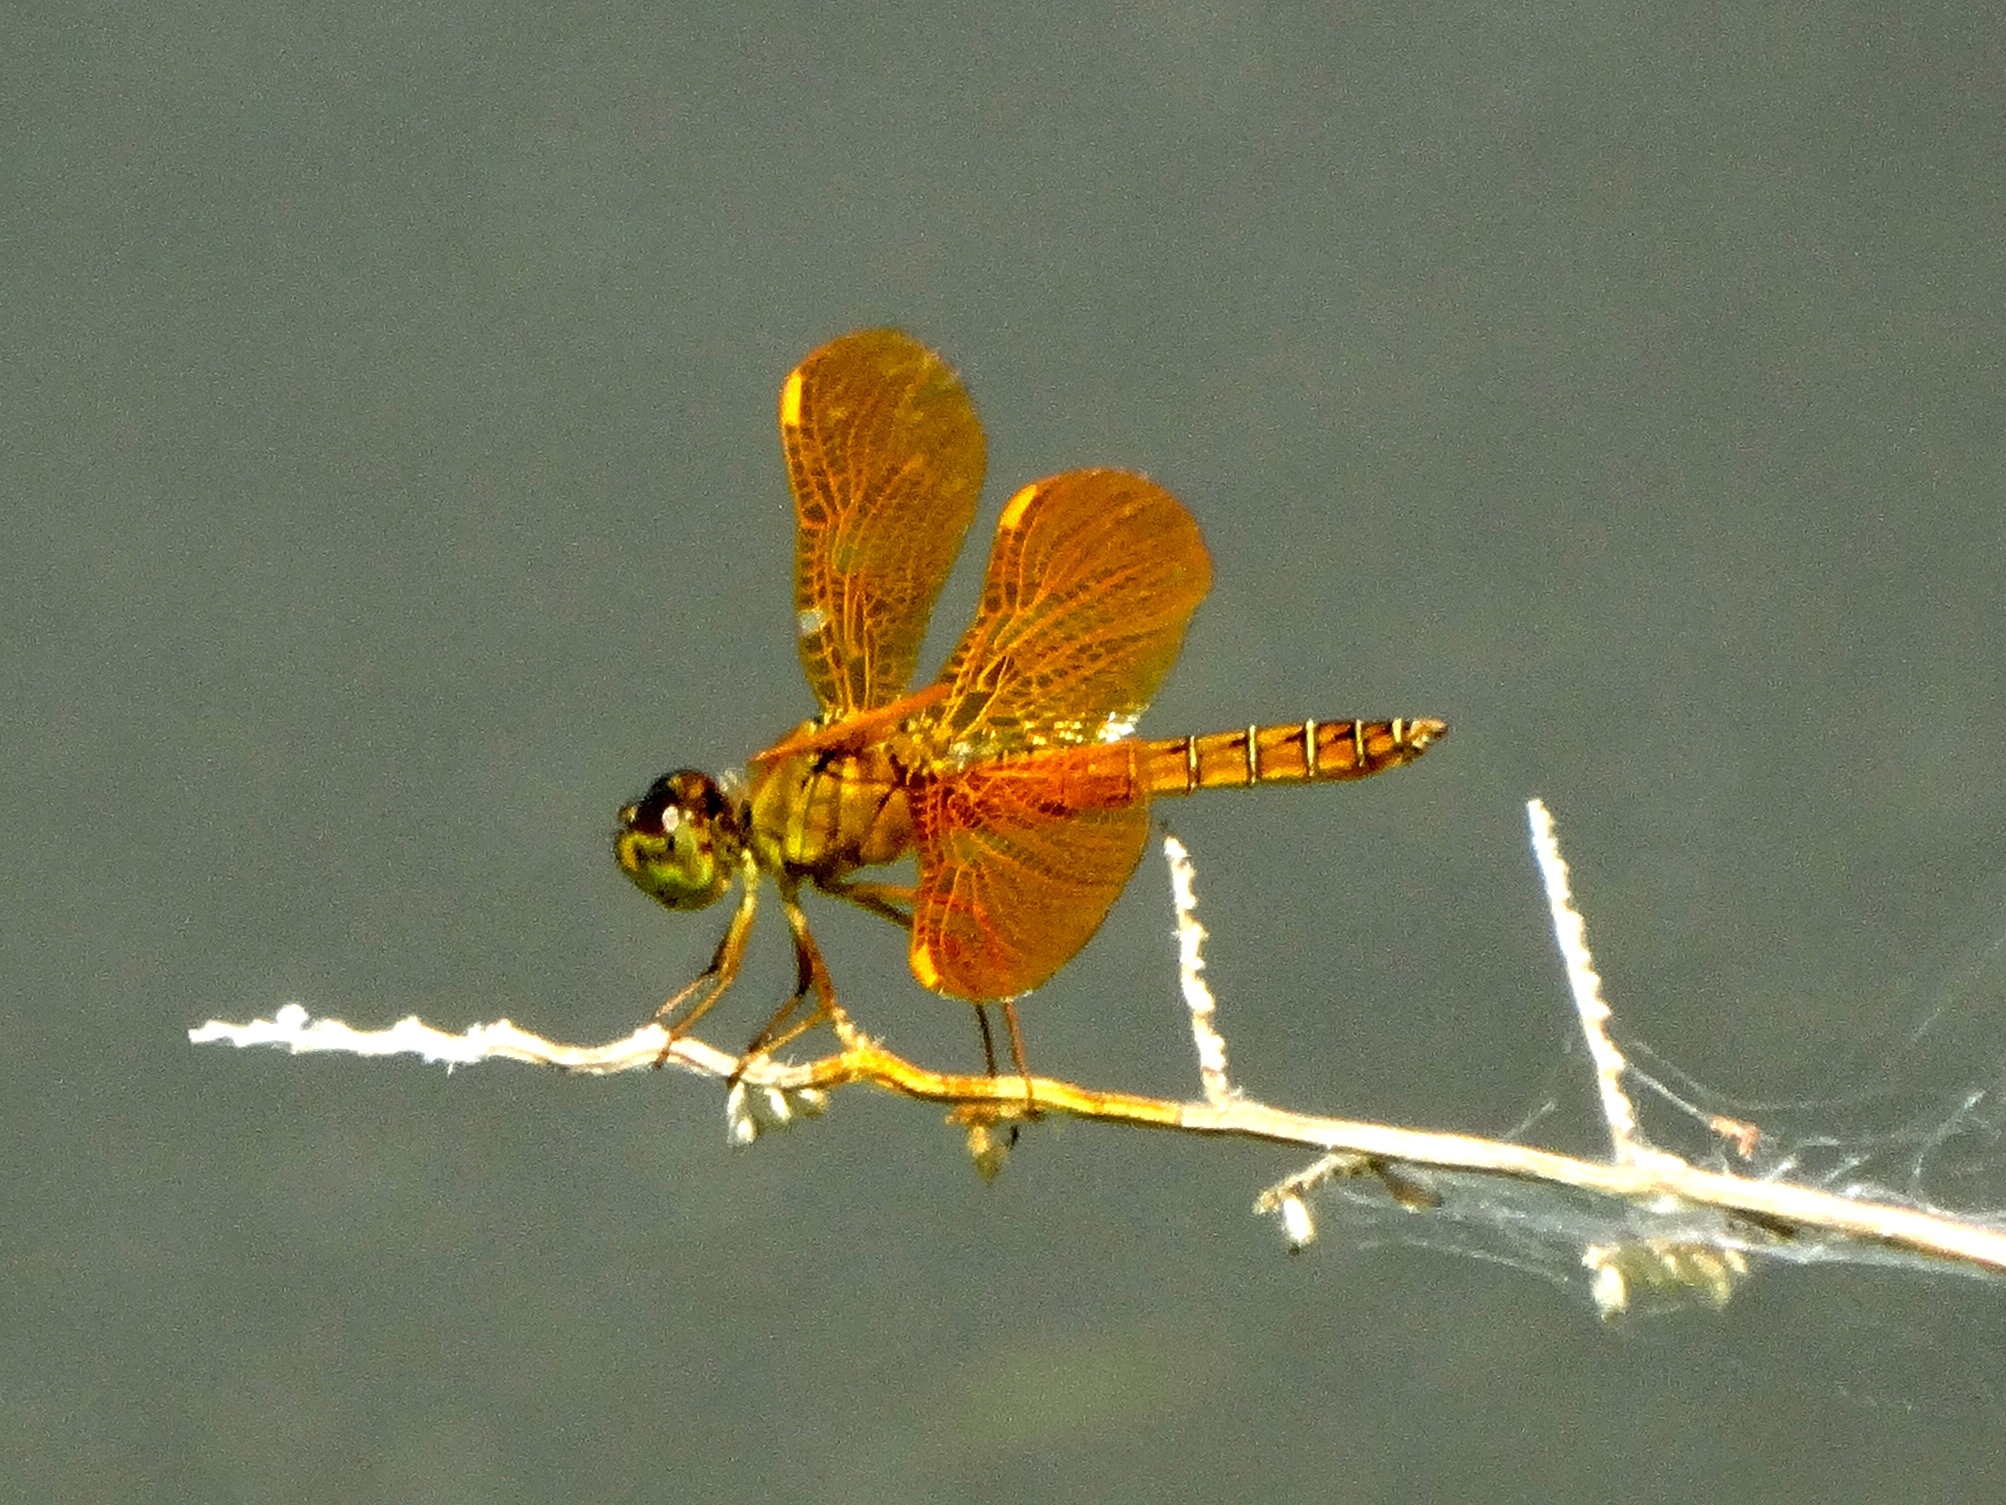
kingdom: Animalia
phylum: Arthropoda
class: Insecta
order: Odonata
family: Libellulidae
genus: Perithemis
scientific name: Perithemis intensa
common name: Mexican amberwing
